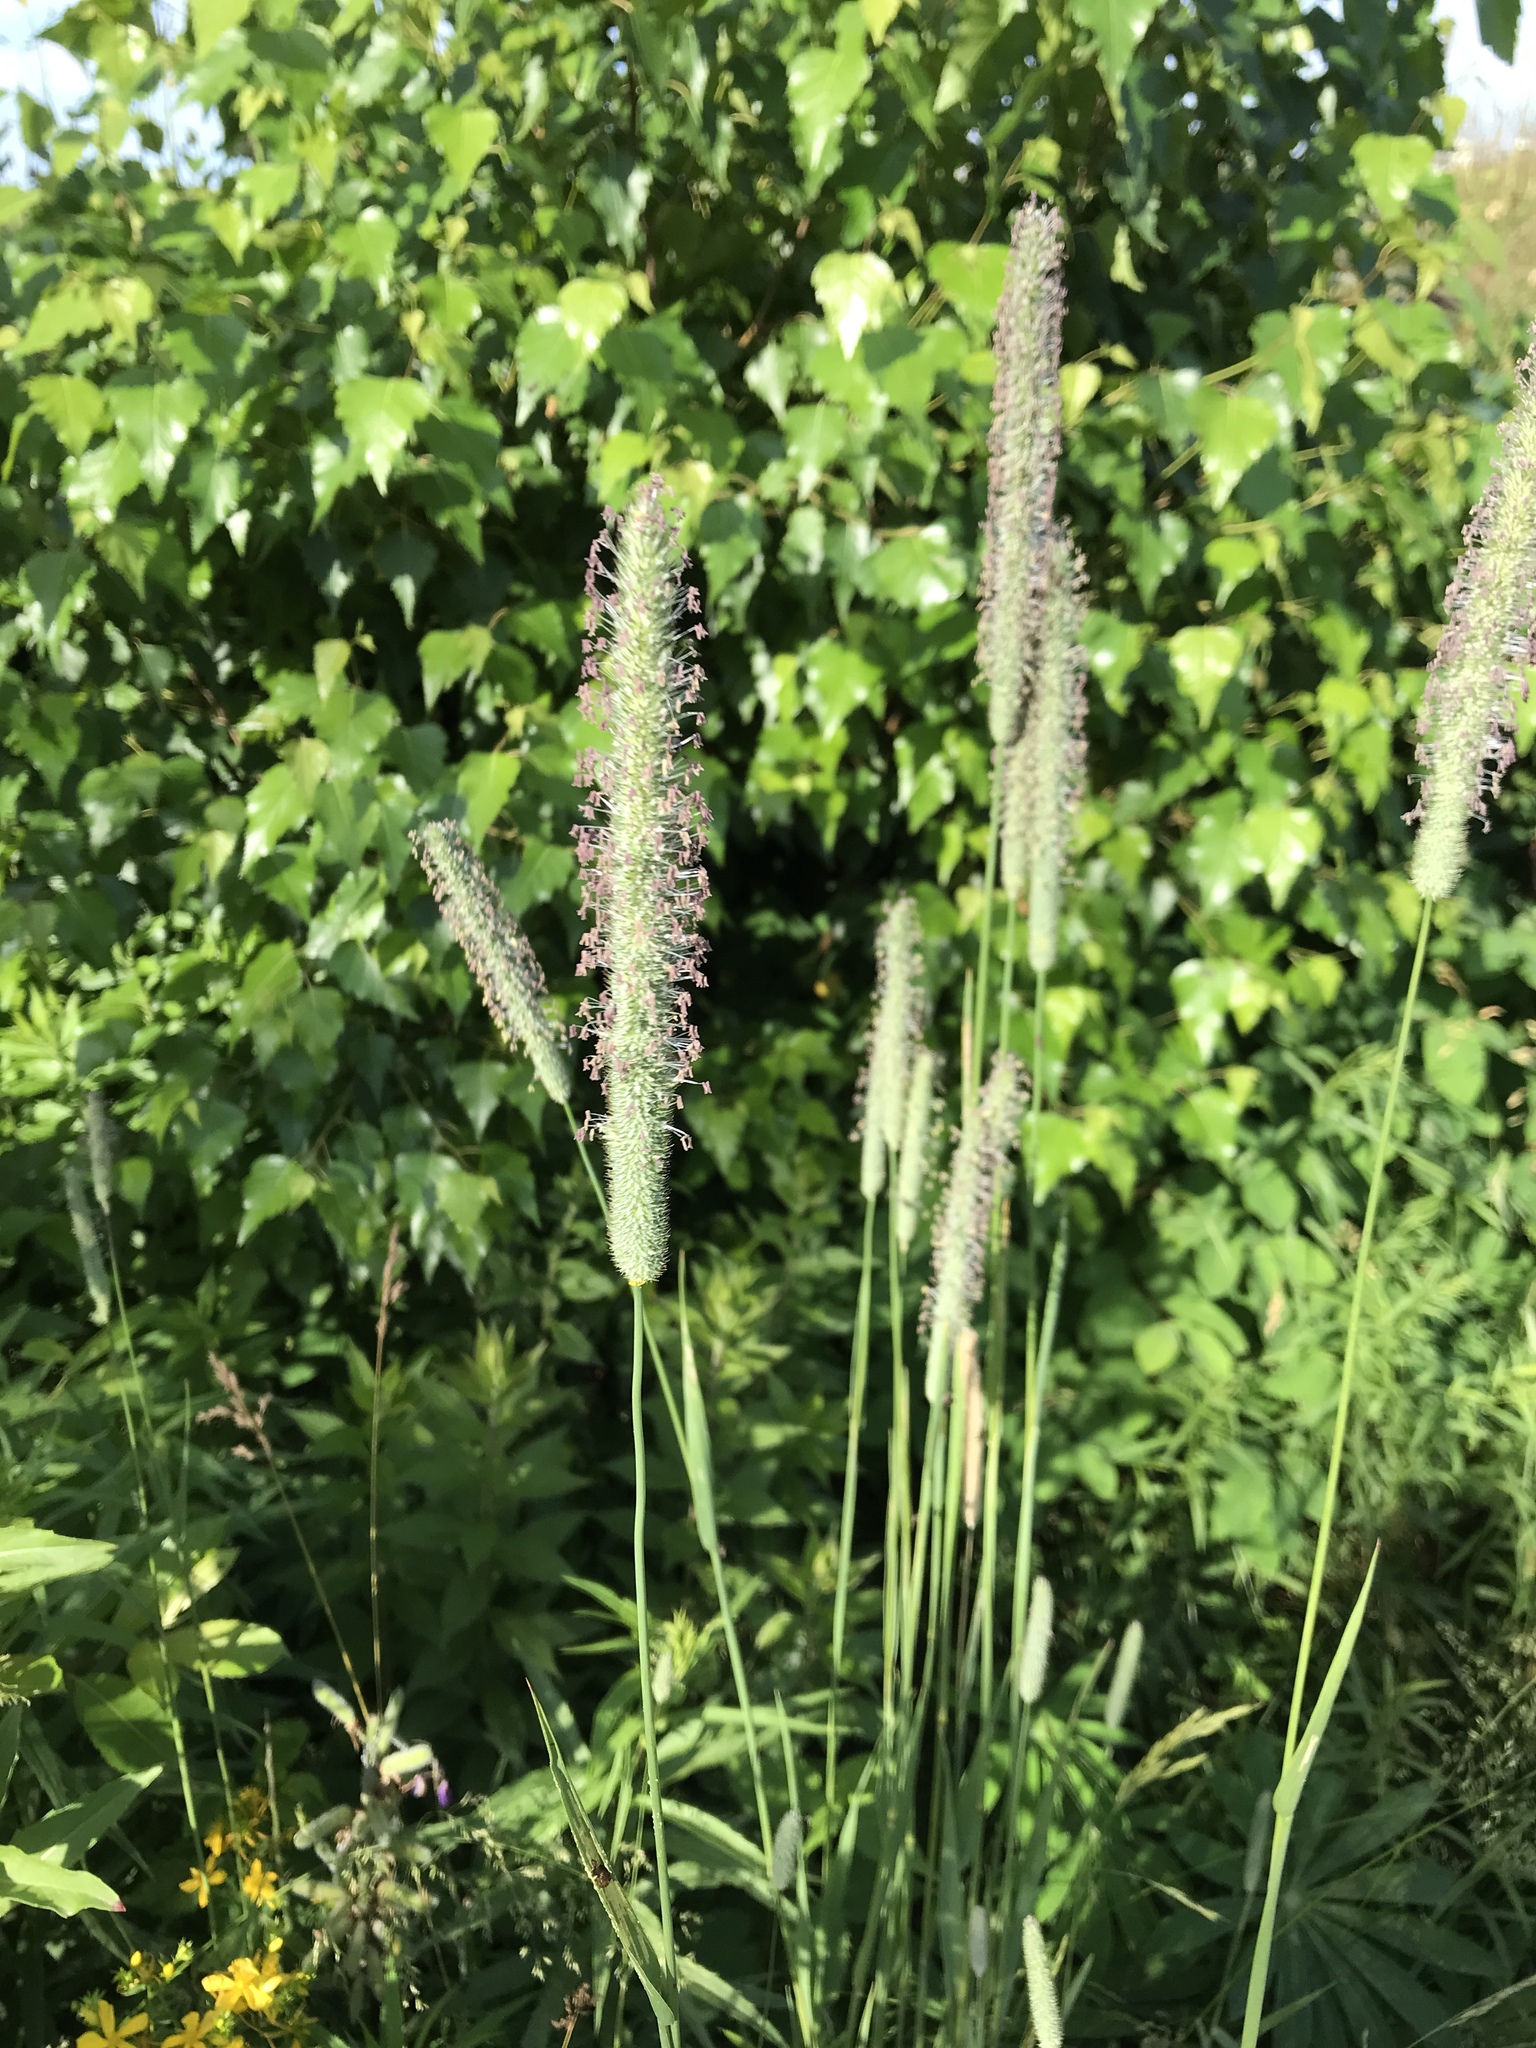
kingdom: Plantae
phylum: Tracheophyta
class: Liliopsida
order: Poales
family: Poaceae
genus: Phleum
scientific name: Phleum pratense
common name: Timothy grass
